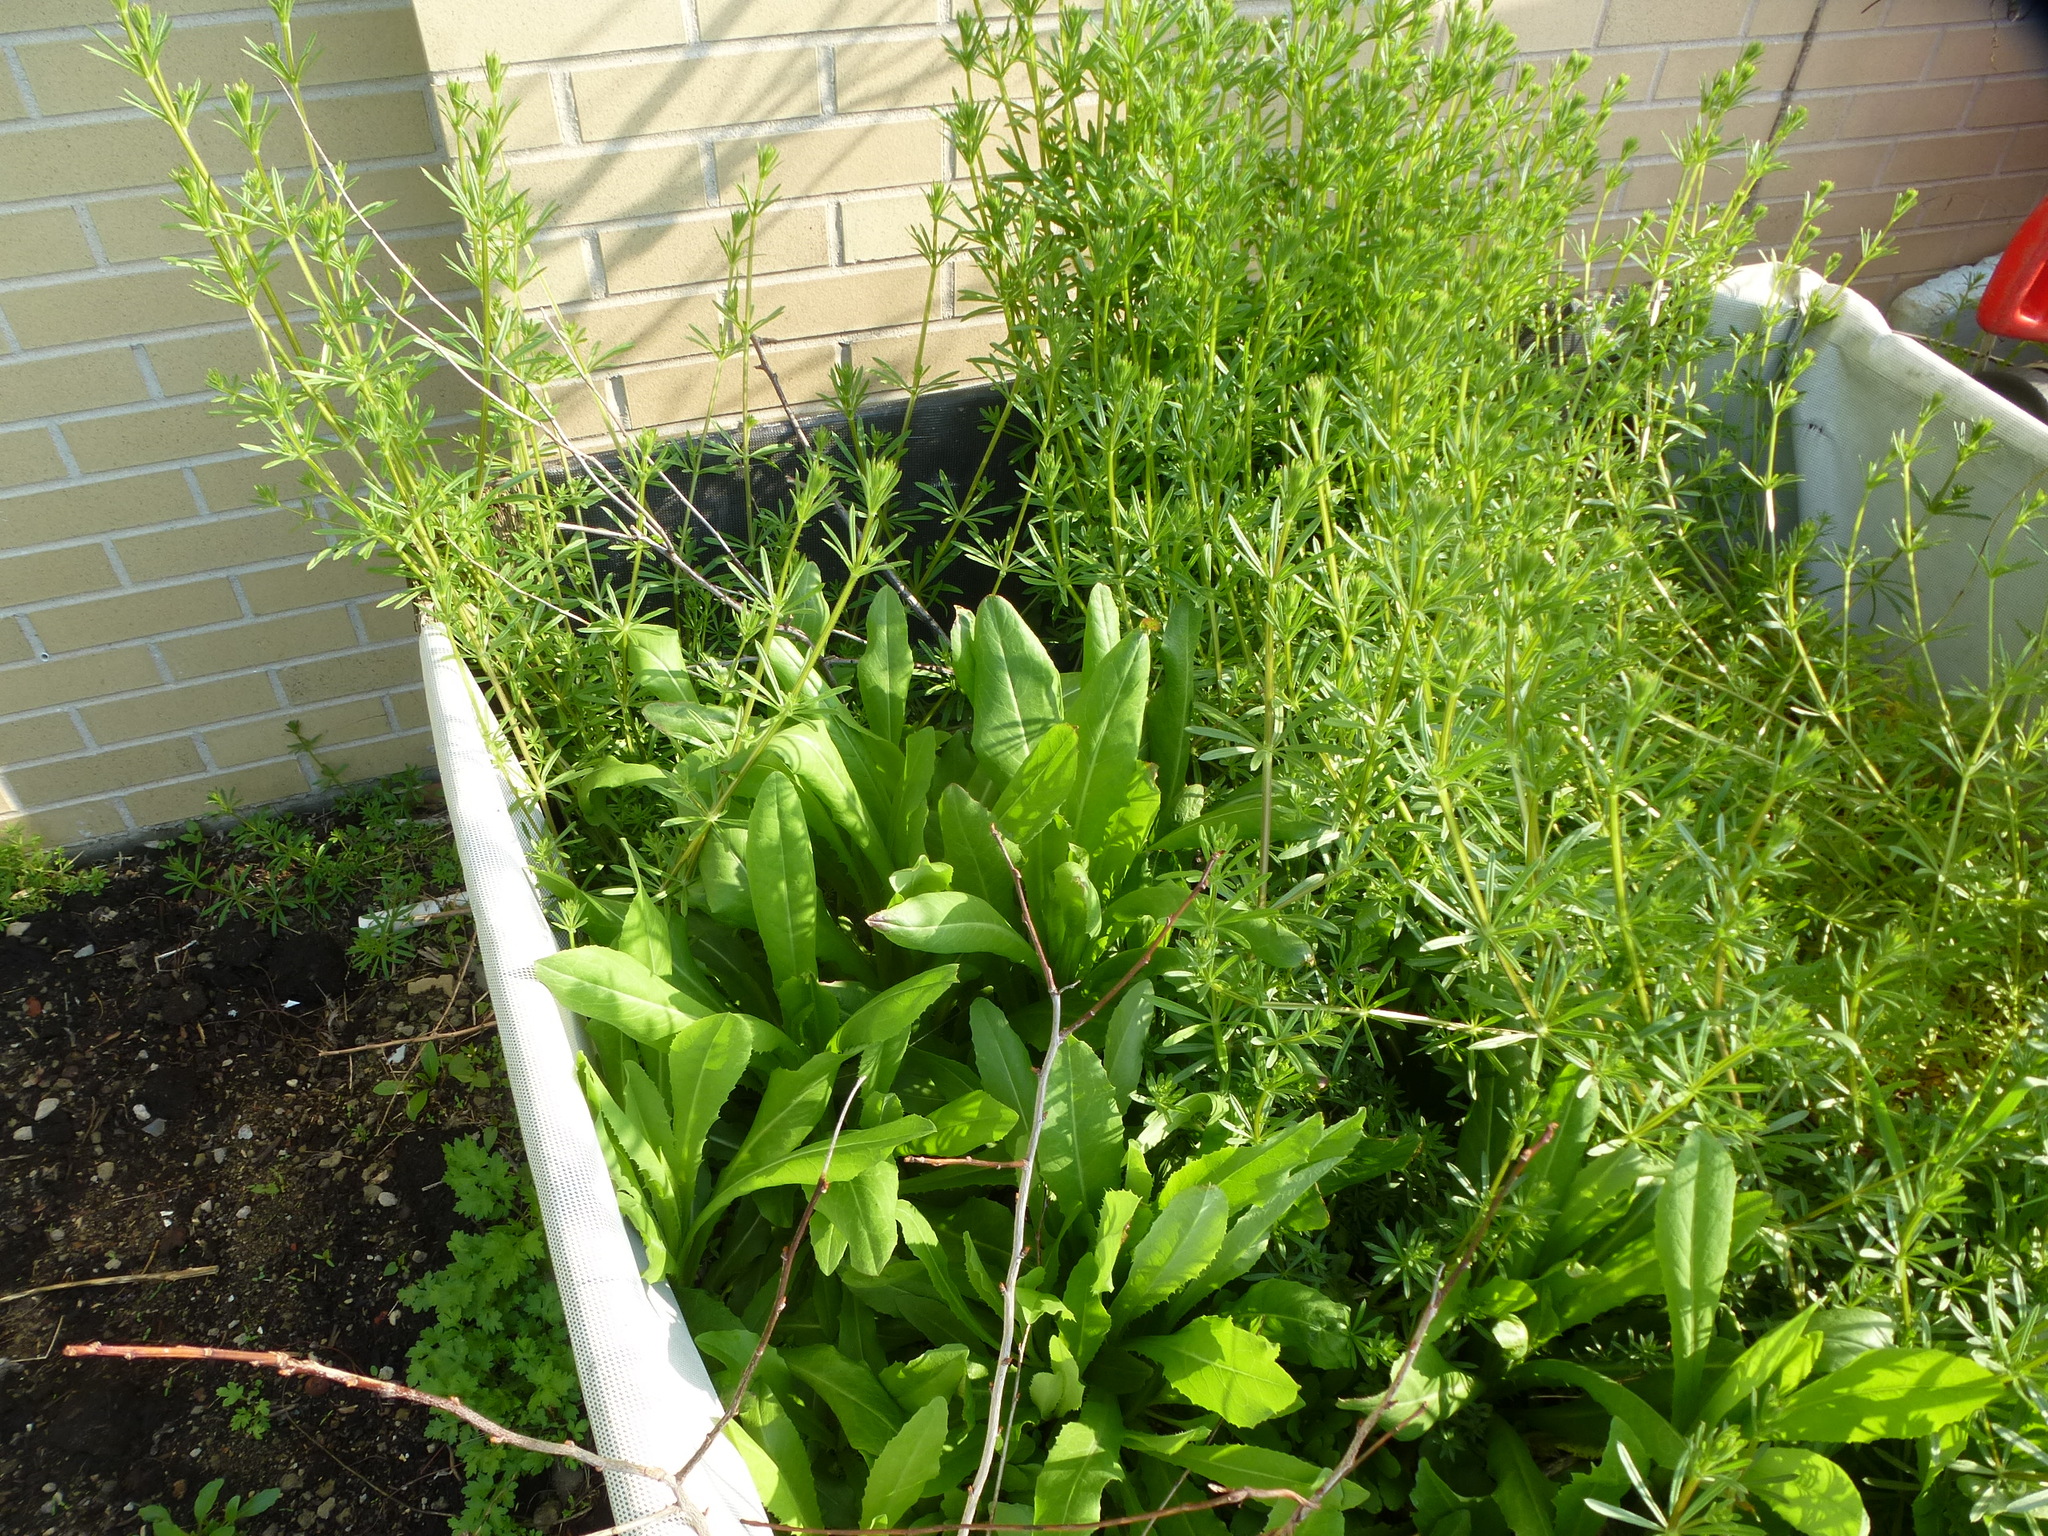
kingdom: Plantae
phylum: Tracheophyta
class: Magnoliopsida
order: Gentianales
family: Rubiaceae
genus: Galium
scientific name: Galium aparine
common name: Cleavers
